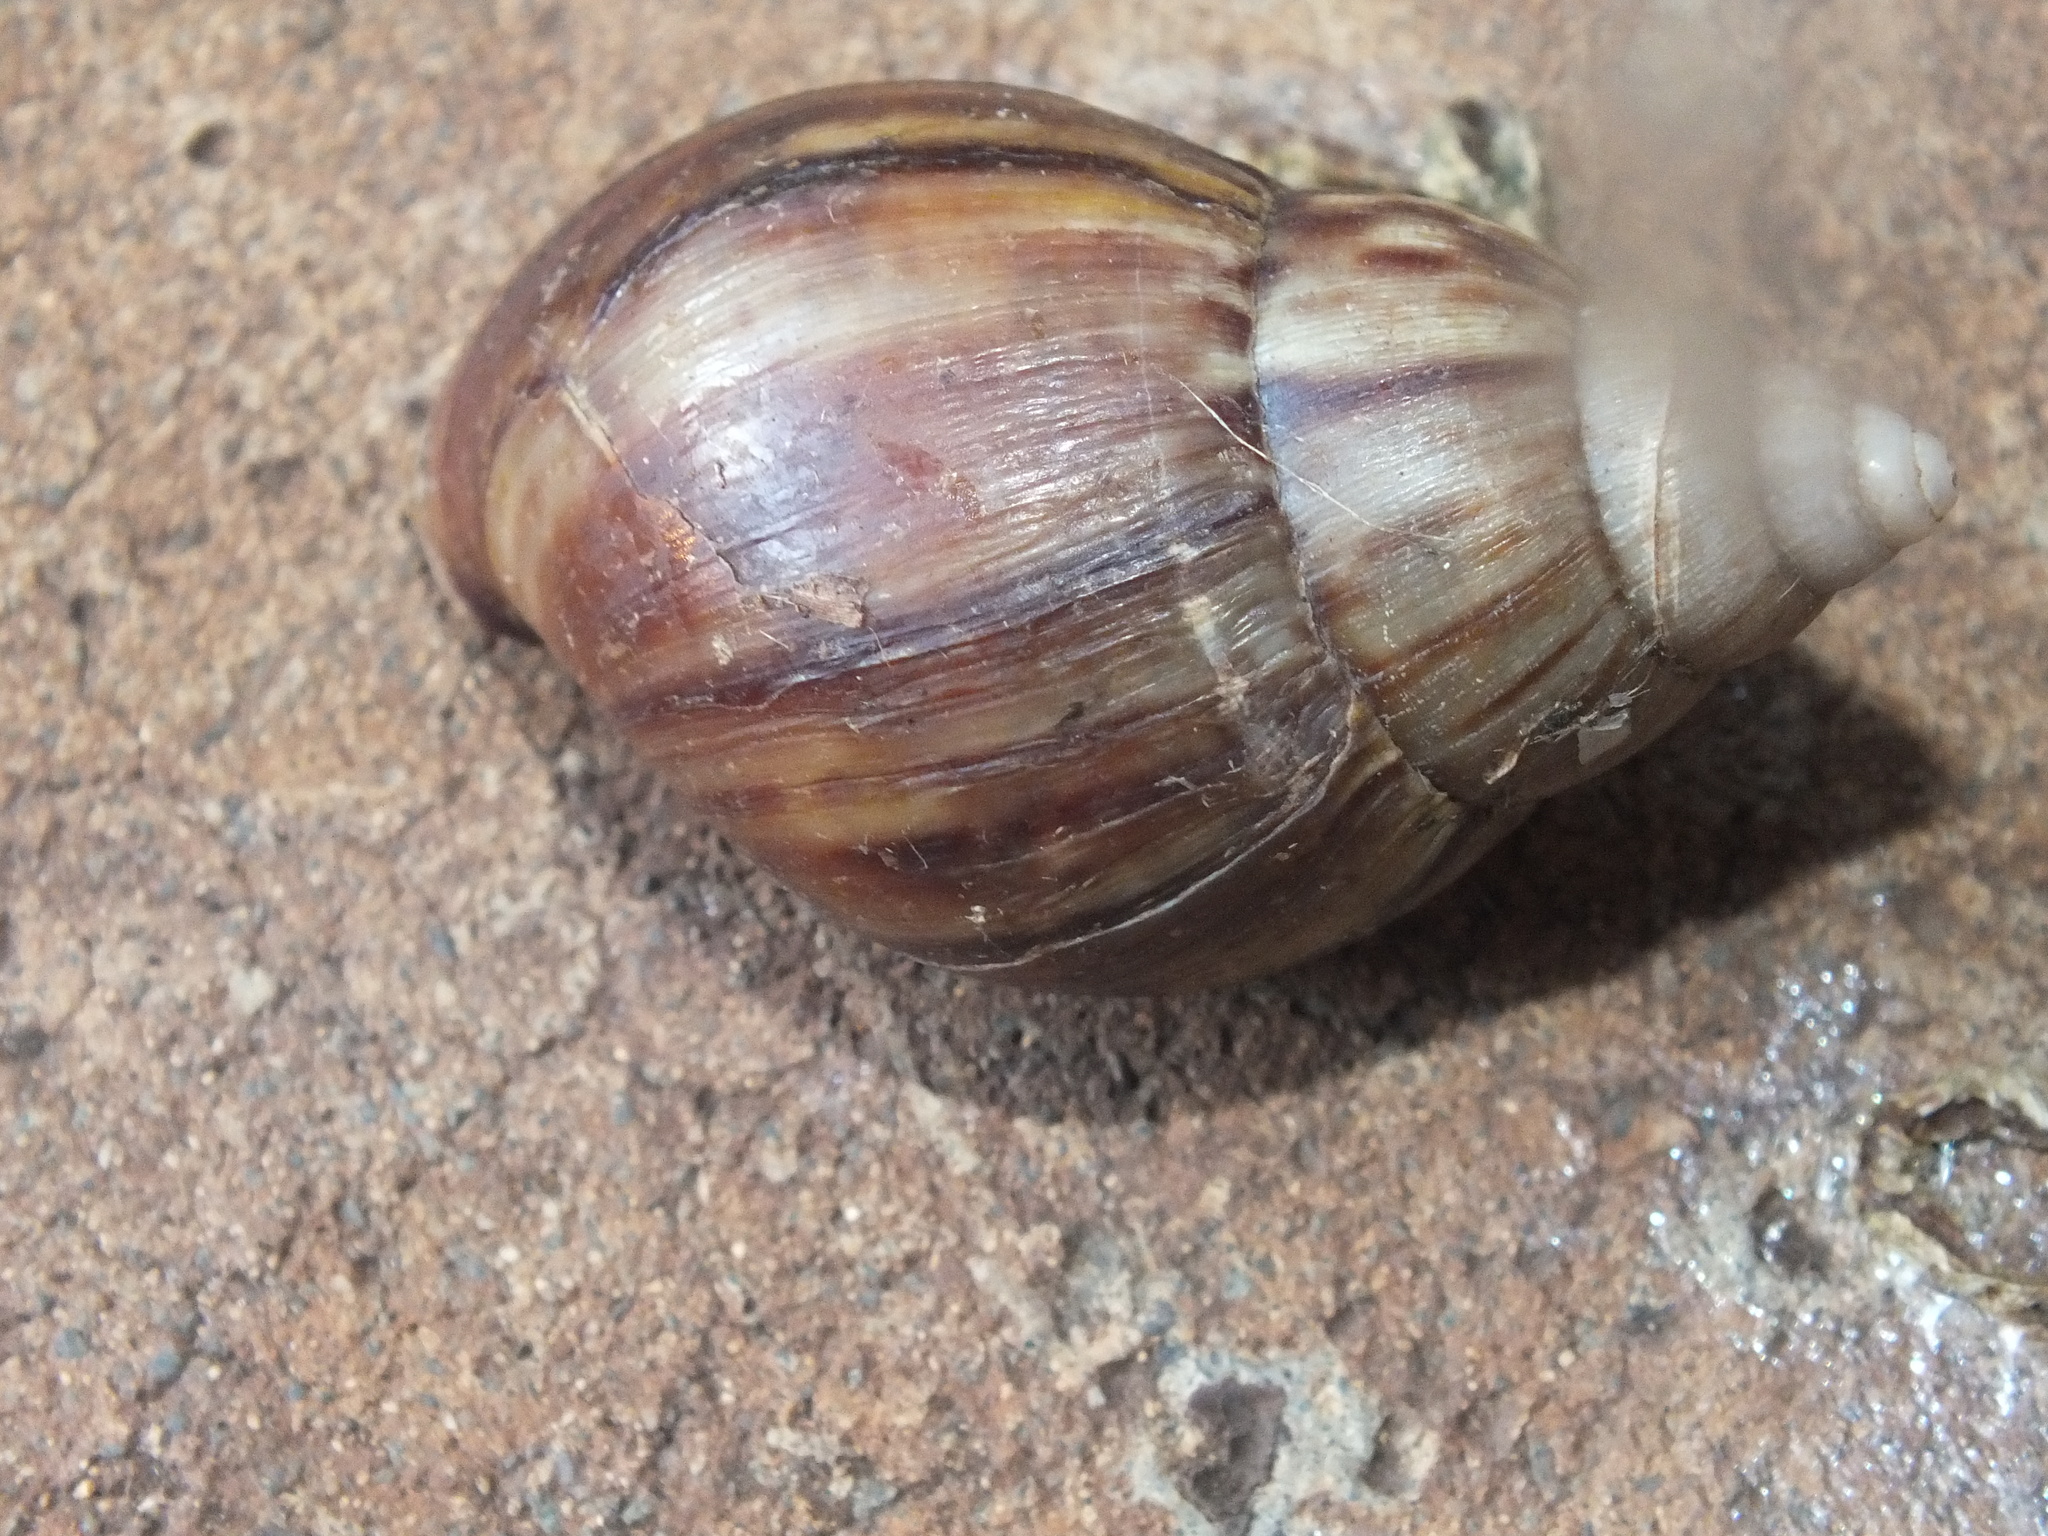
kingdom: Animalia
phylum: Mollusca
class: Gastropoda
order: Stylommatophora
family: Achatinidae
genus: Lissachatina
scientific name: Lissachatina fulica
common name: Giant african snail
